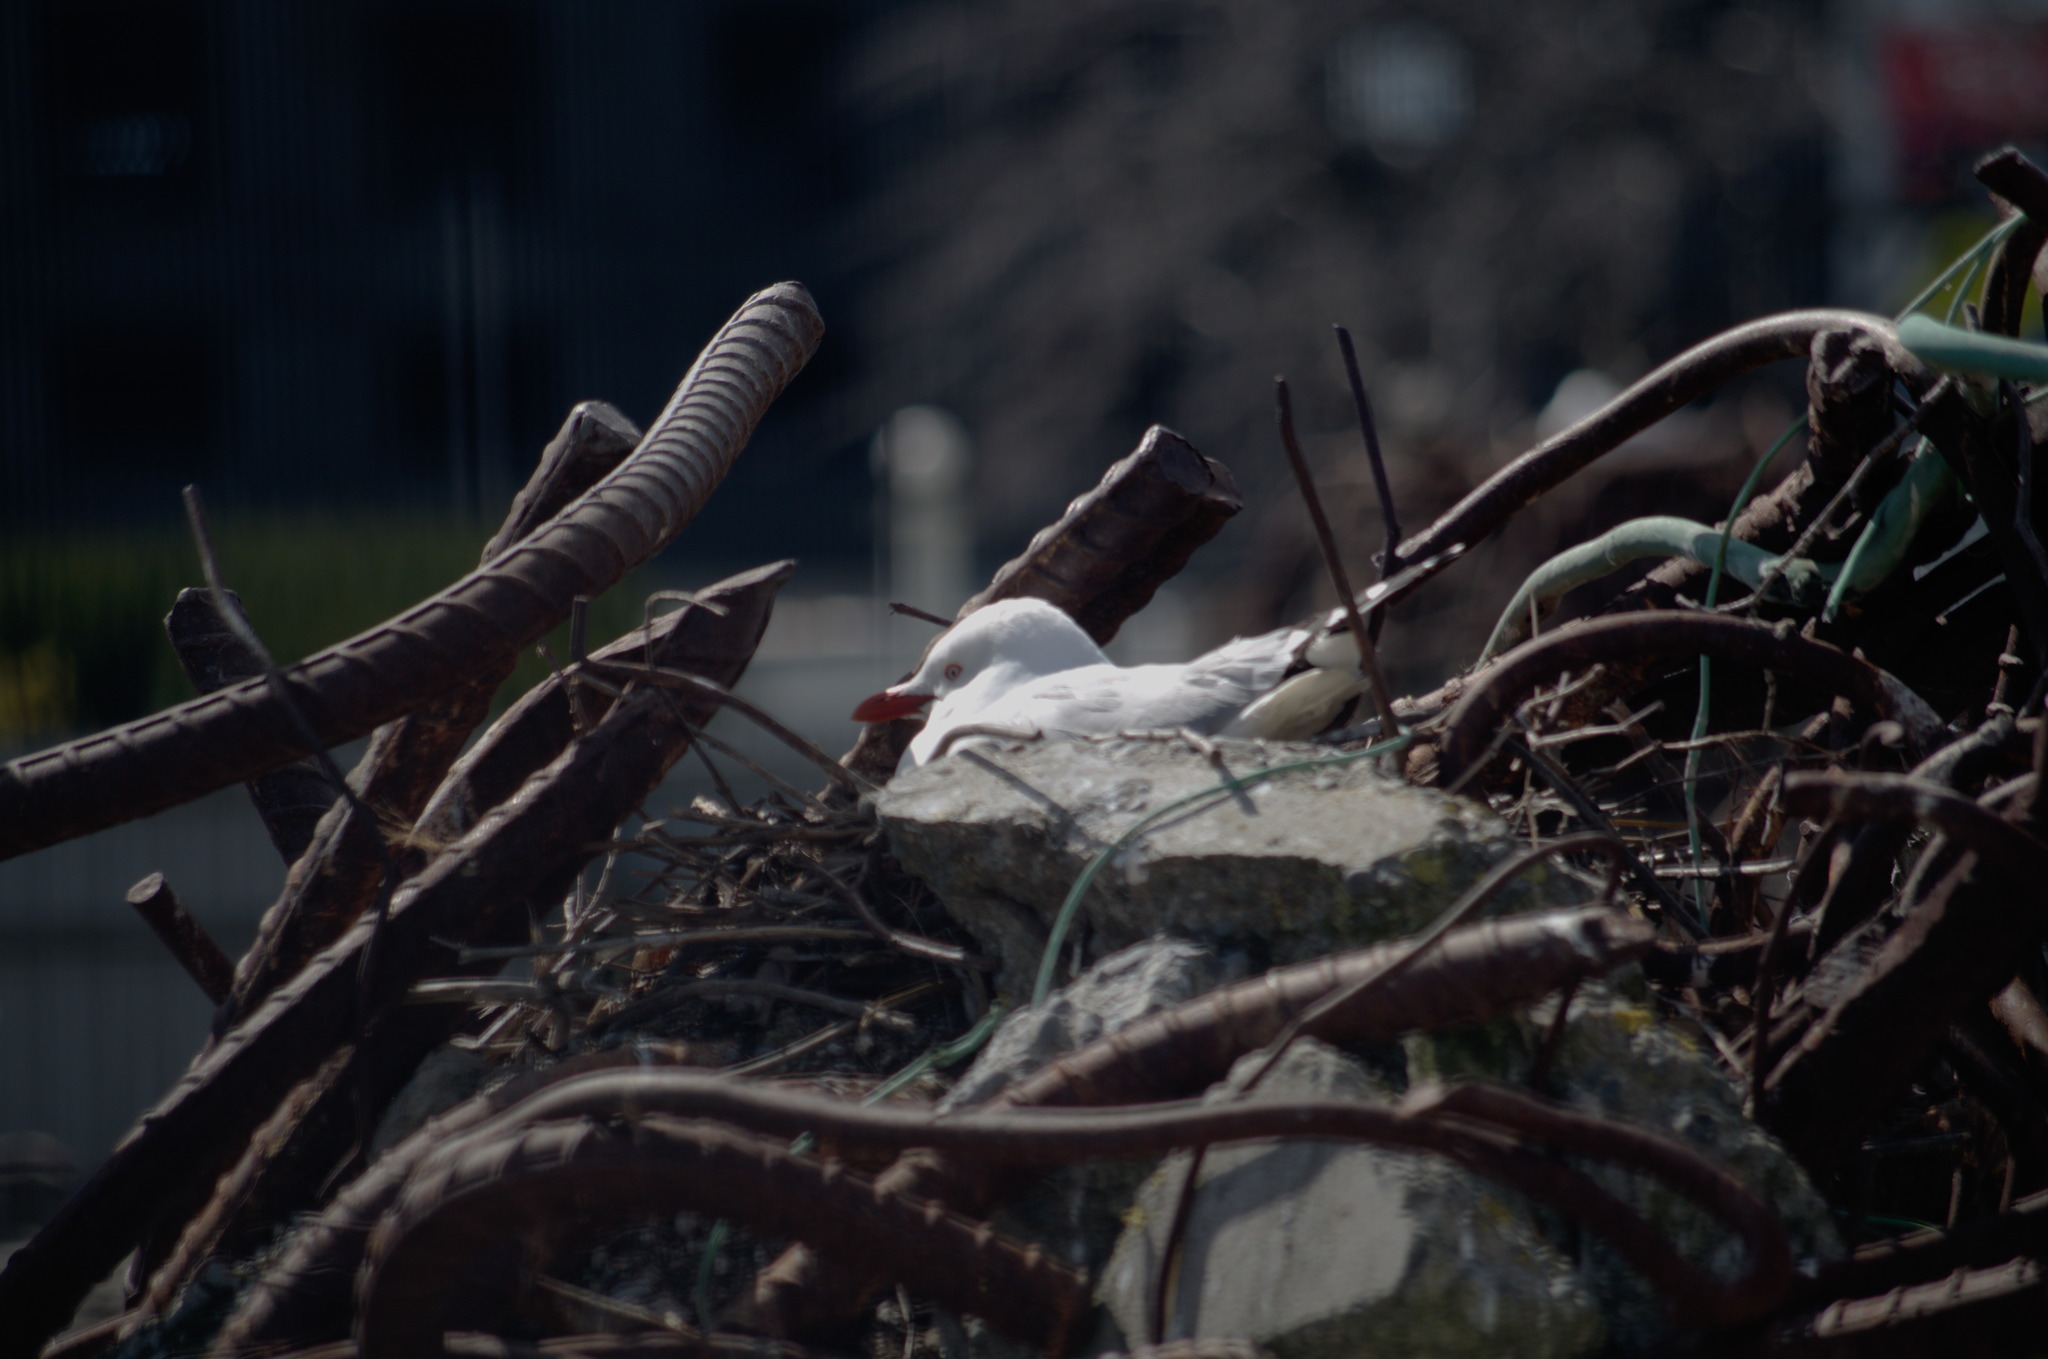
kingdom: Animalia
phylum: Chordata
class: Aves
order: Charadriiformes
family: Laridae
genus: Chroicocephalus
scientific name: Chroicocephalus novaehollandiae
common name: Silver gull
